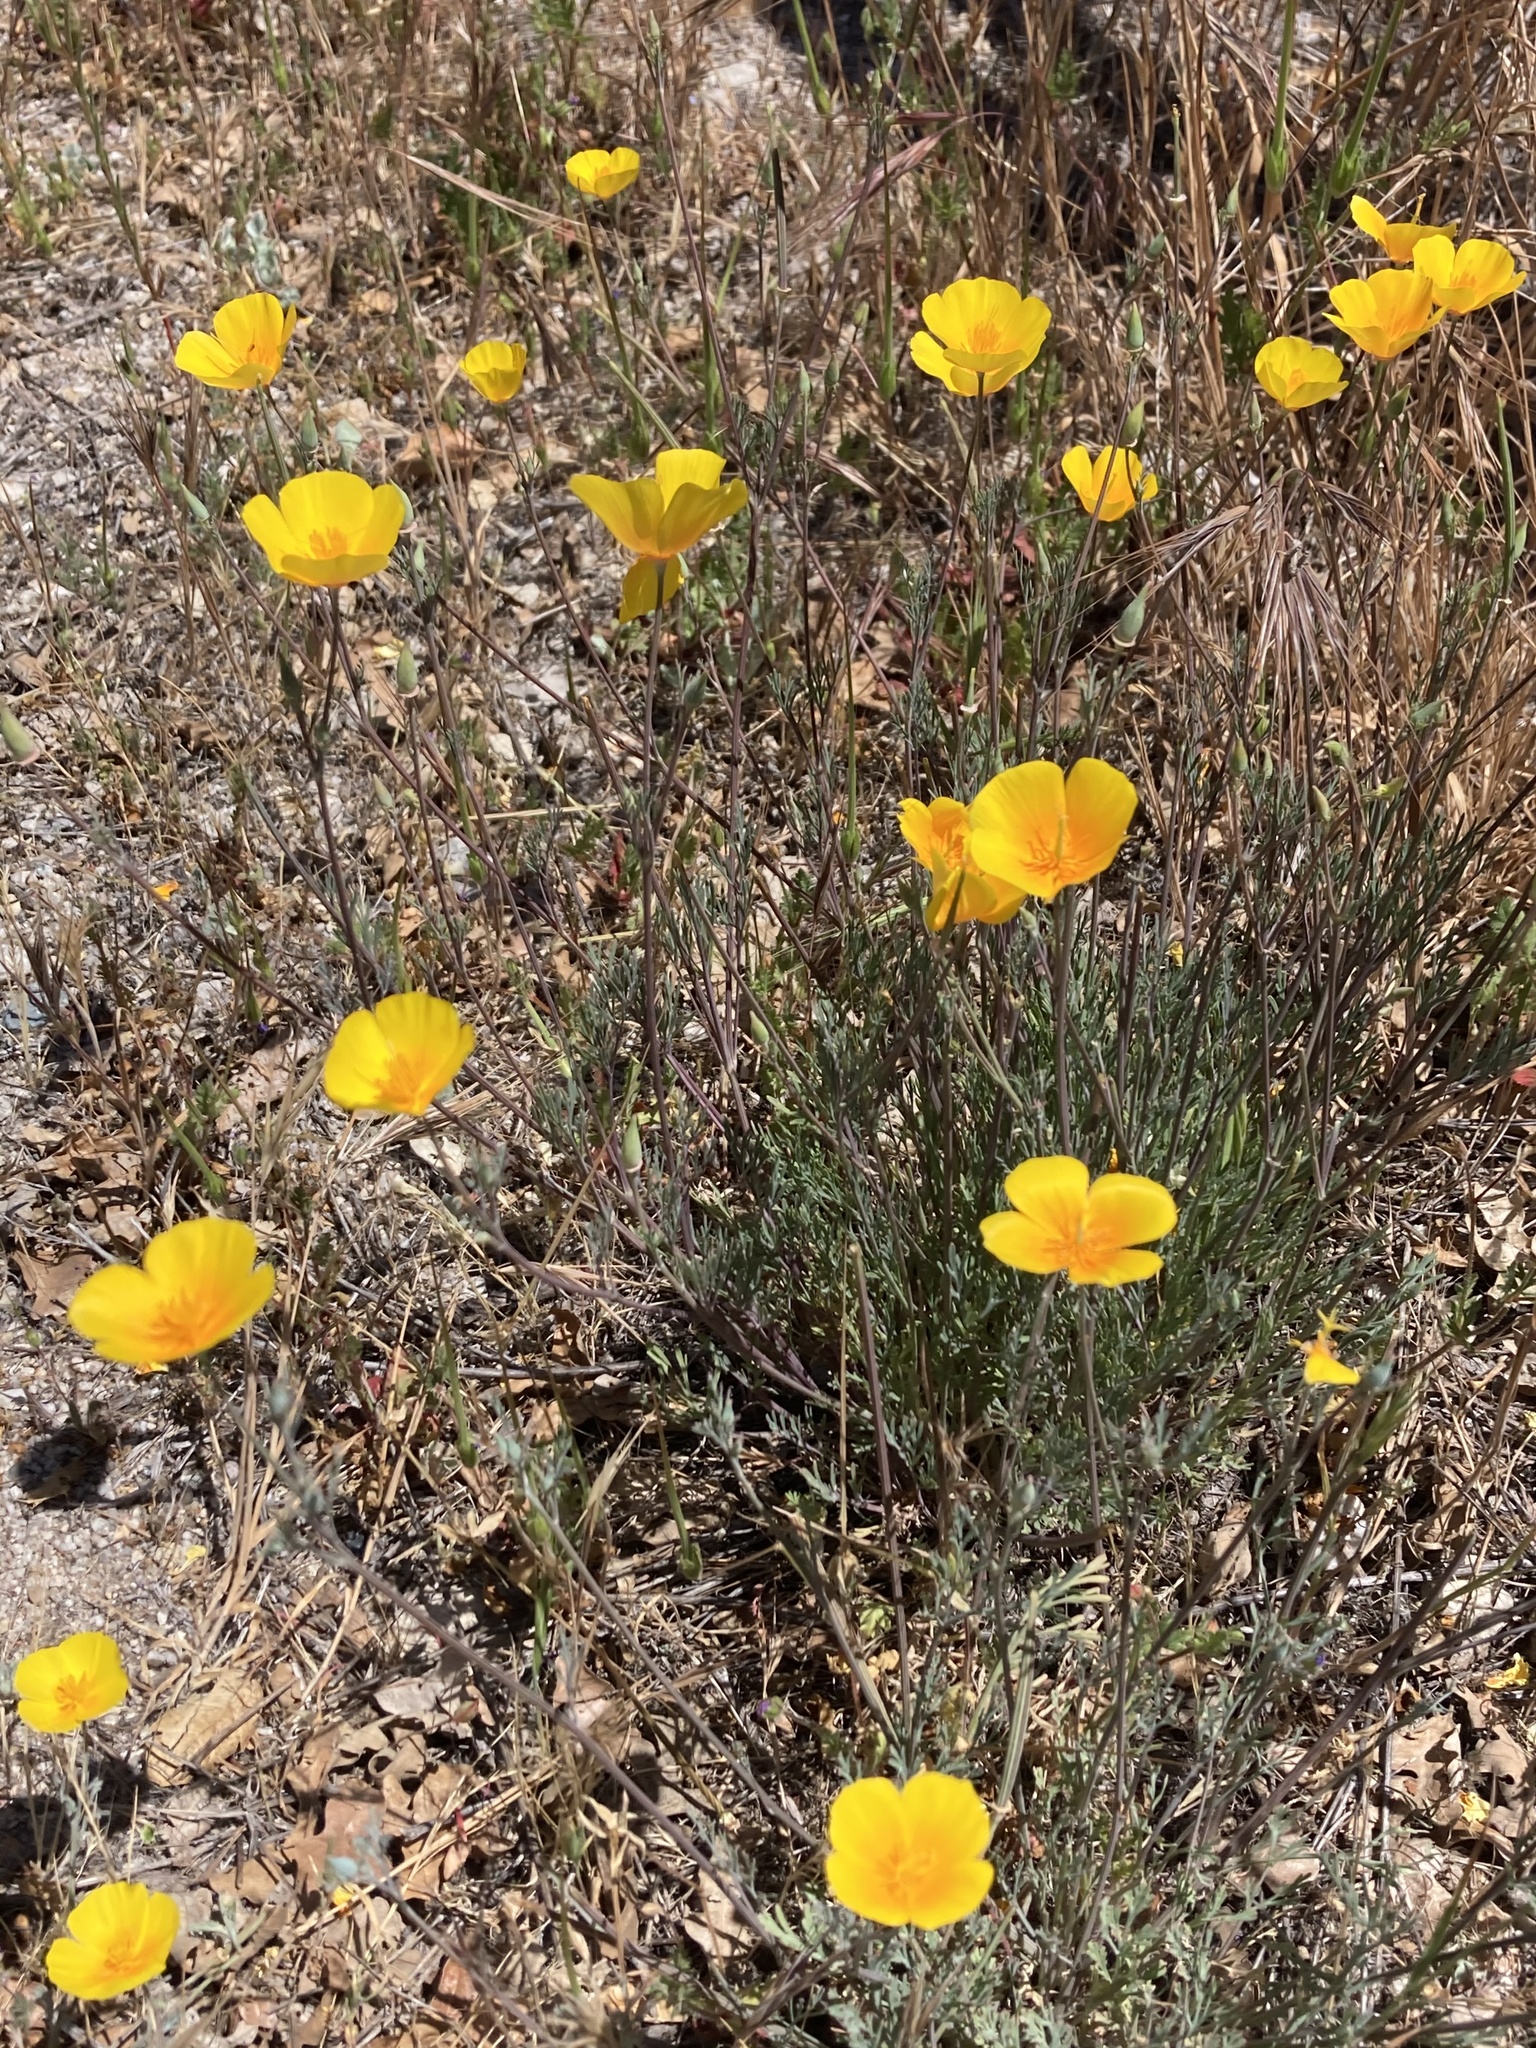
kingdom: Plantae
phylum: Tracheophyta
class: Magnoliopsida
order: Ranunculales
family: Papaveraceae
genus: Eschscholzia
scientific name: Eschscholzia californica
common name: California poppy
